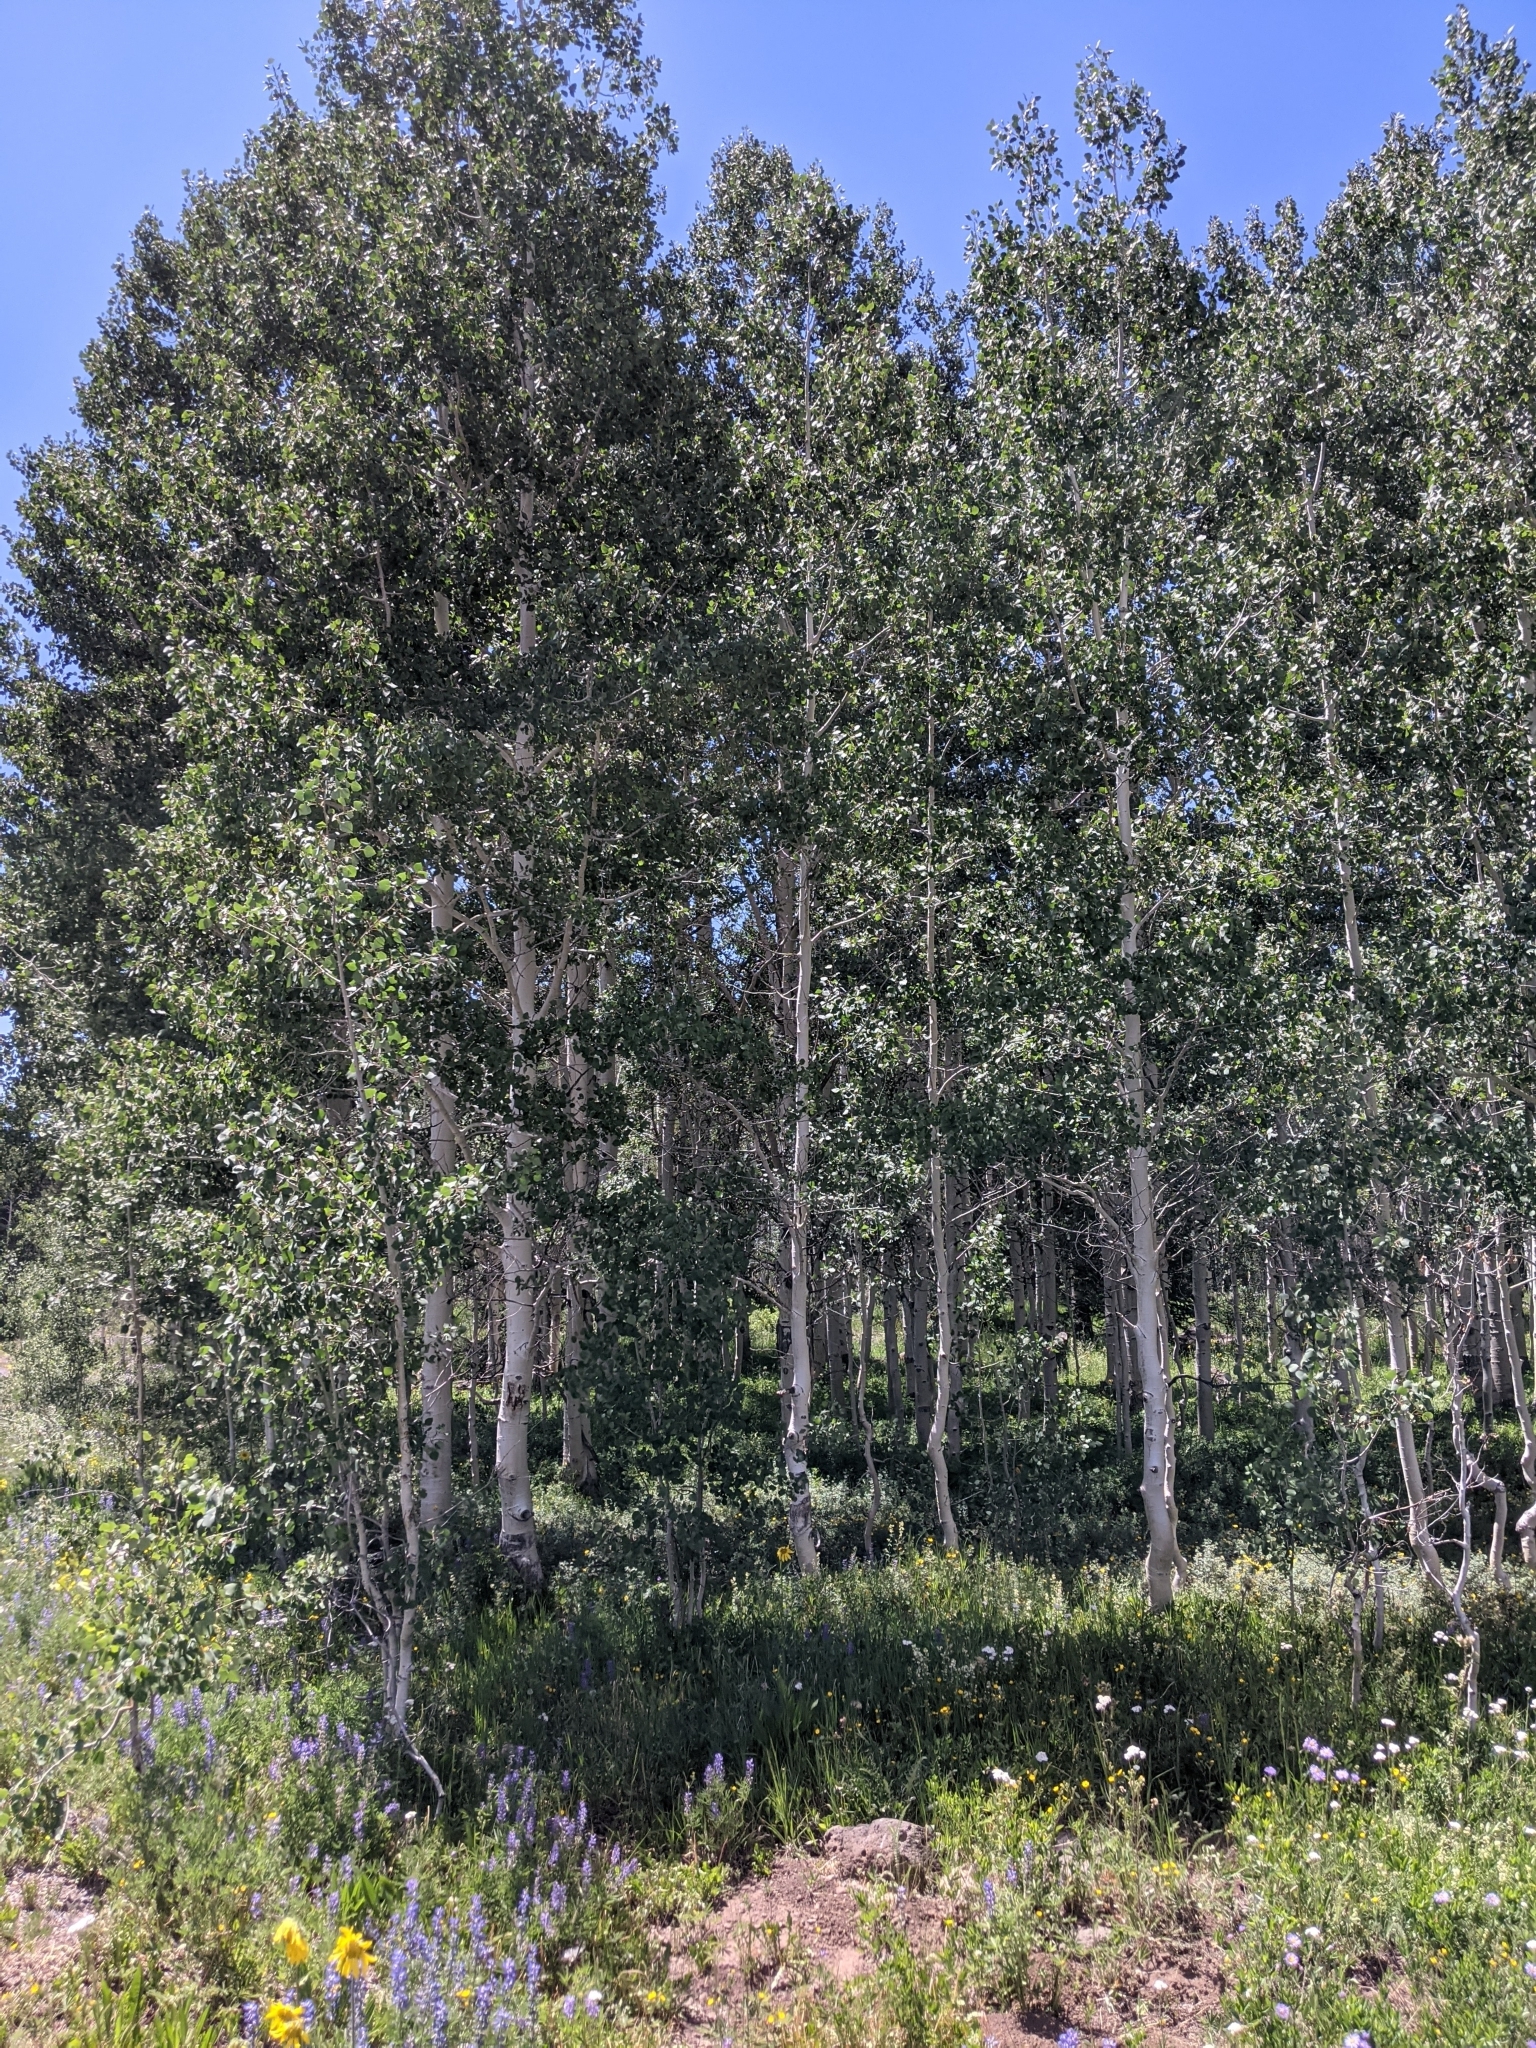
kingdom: Plantae
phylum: Tracheophyta
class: Magnoliopsida
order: Malpighiales
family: Salicaceae
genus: Populus
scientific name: Populus tremuloides
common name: Quaking aspen
